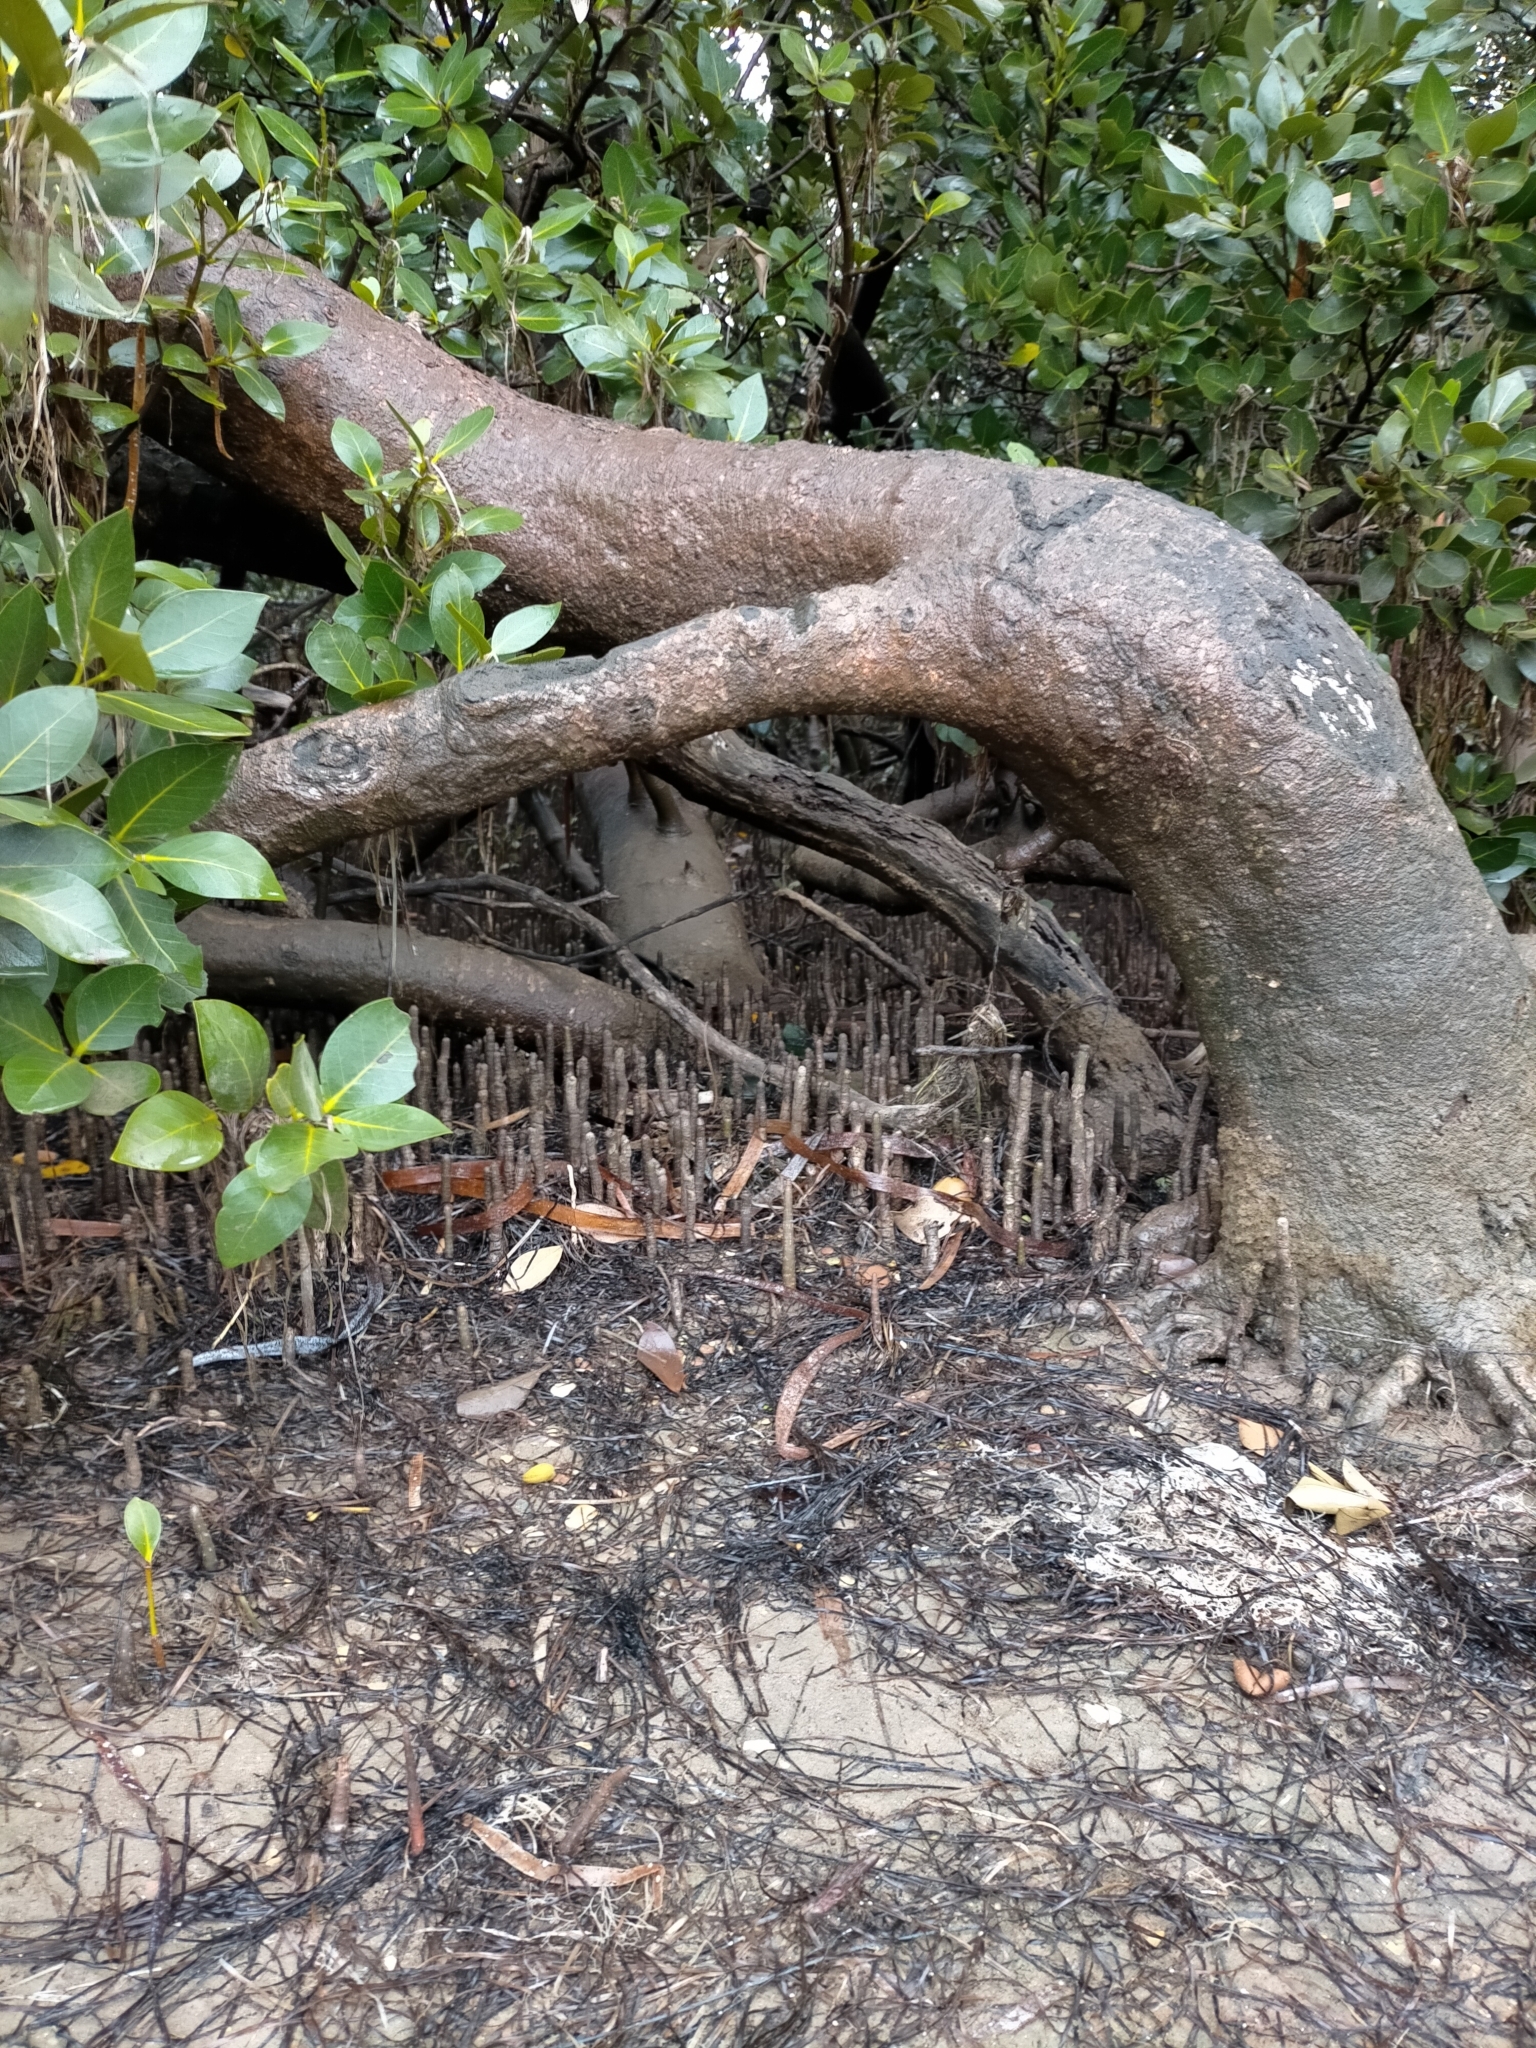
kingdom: Plantae
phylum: Tracheophyta
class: Magnoliopsida
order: Lamiales
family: Acanthaceae
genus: Avicennia
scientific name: Avicennia marina
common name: Gray mangrove
